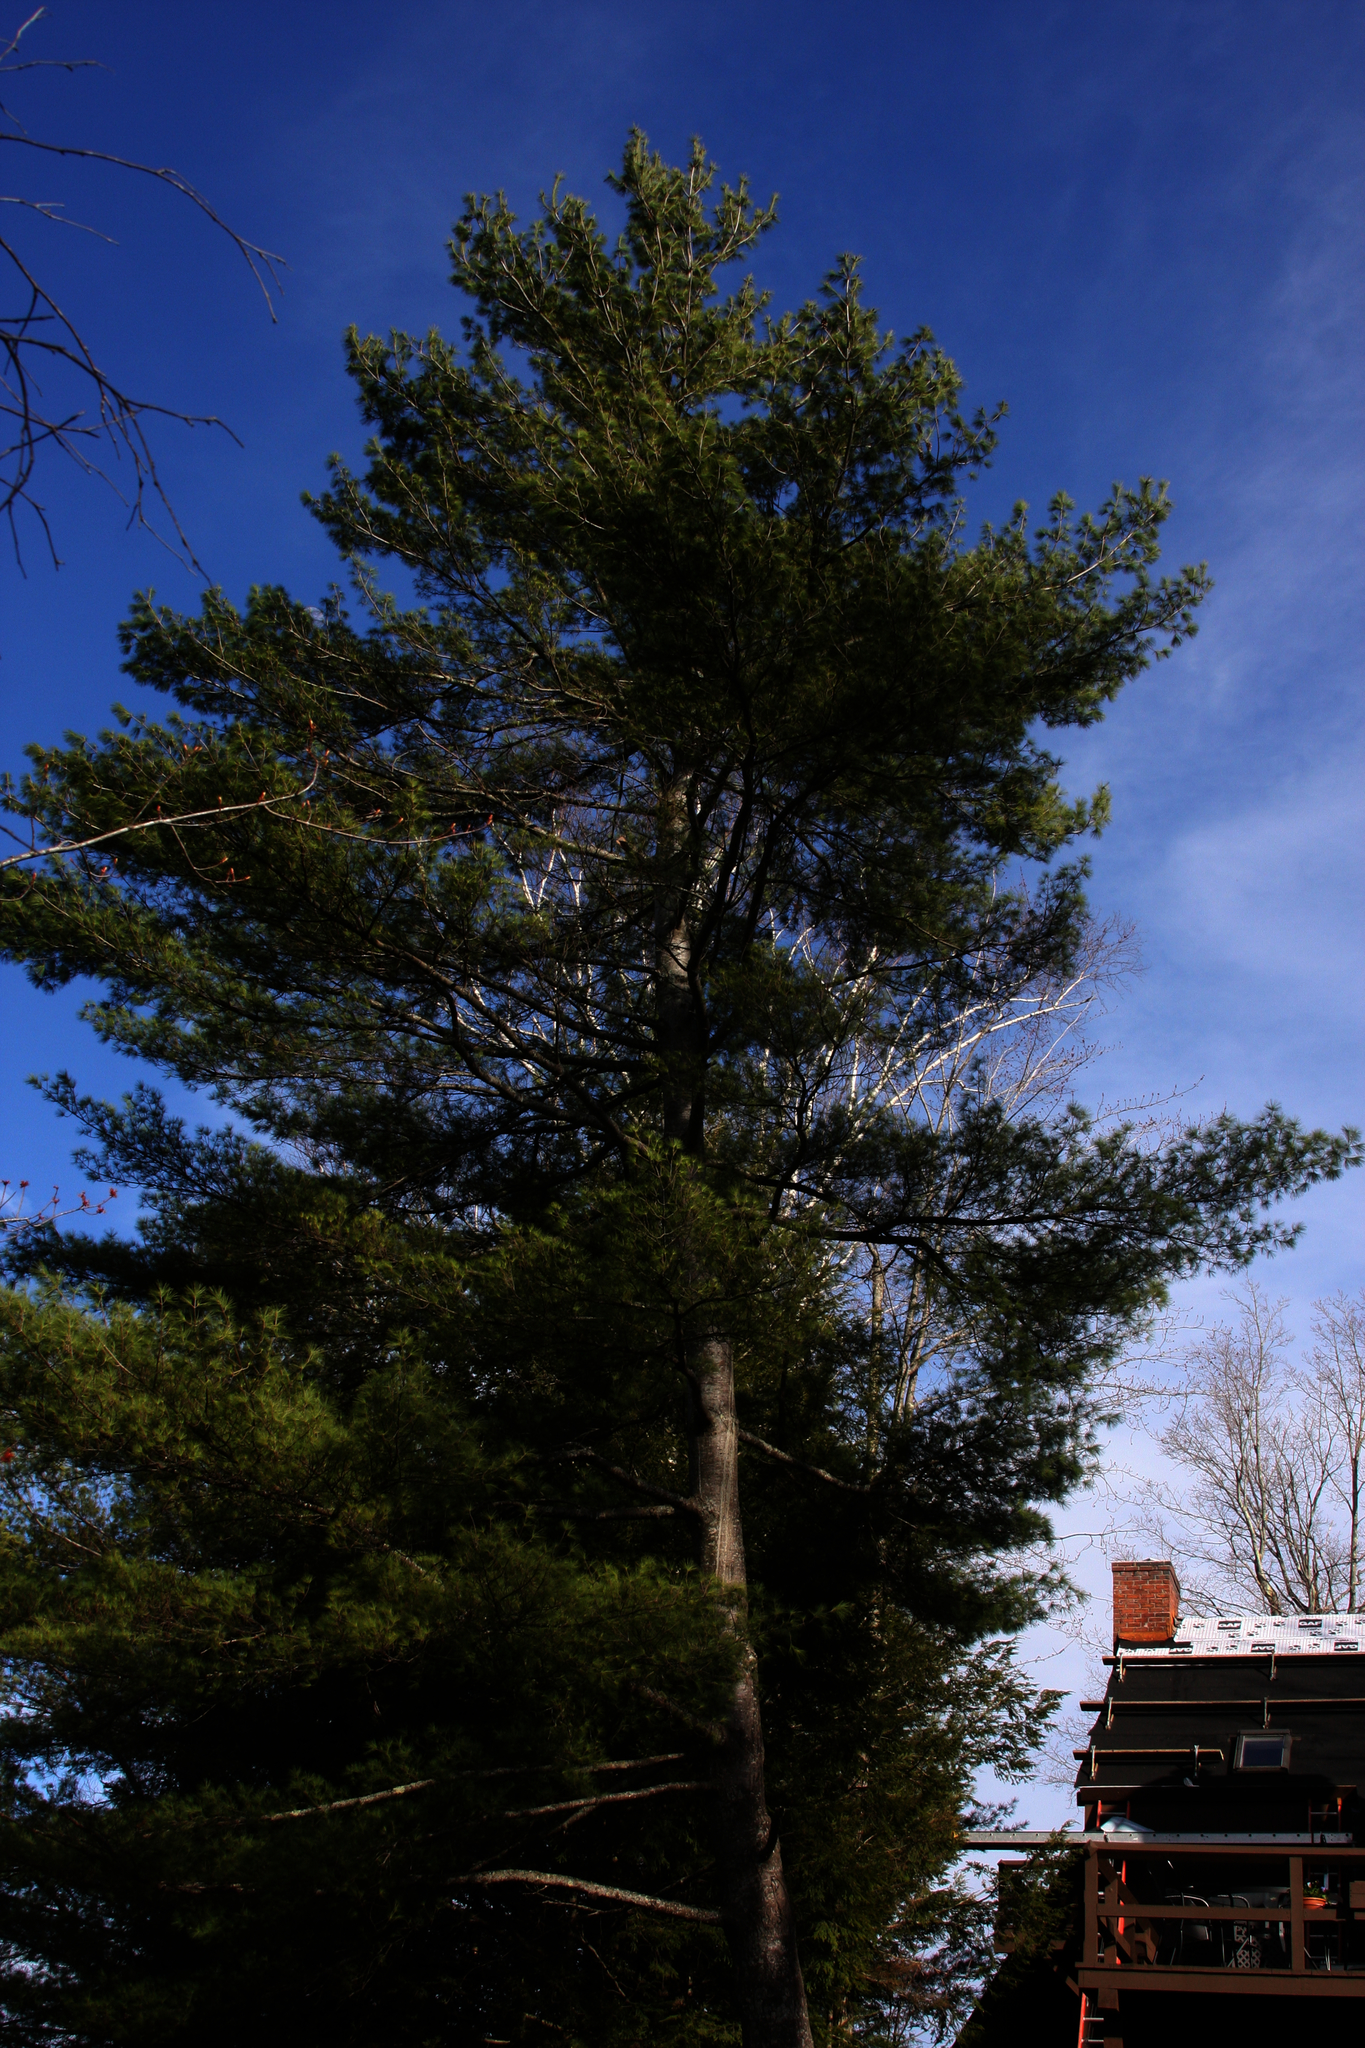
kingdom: Plantae
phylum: Tracheophyta
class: Pinopsida
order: Pinales
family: Pinaceae
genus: Pinus
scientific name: Pinus strobus
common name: Weymouth pine
